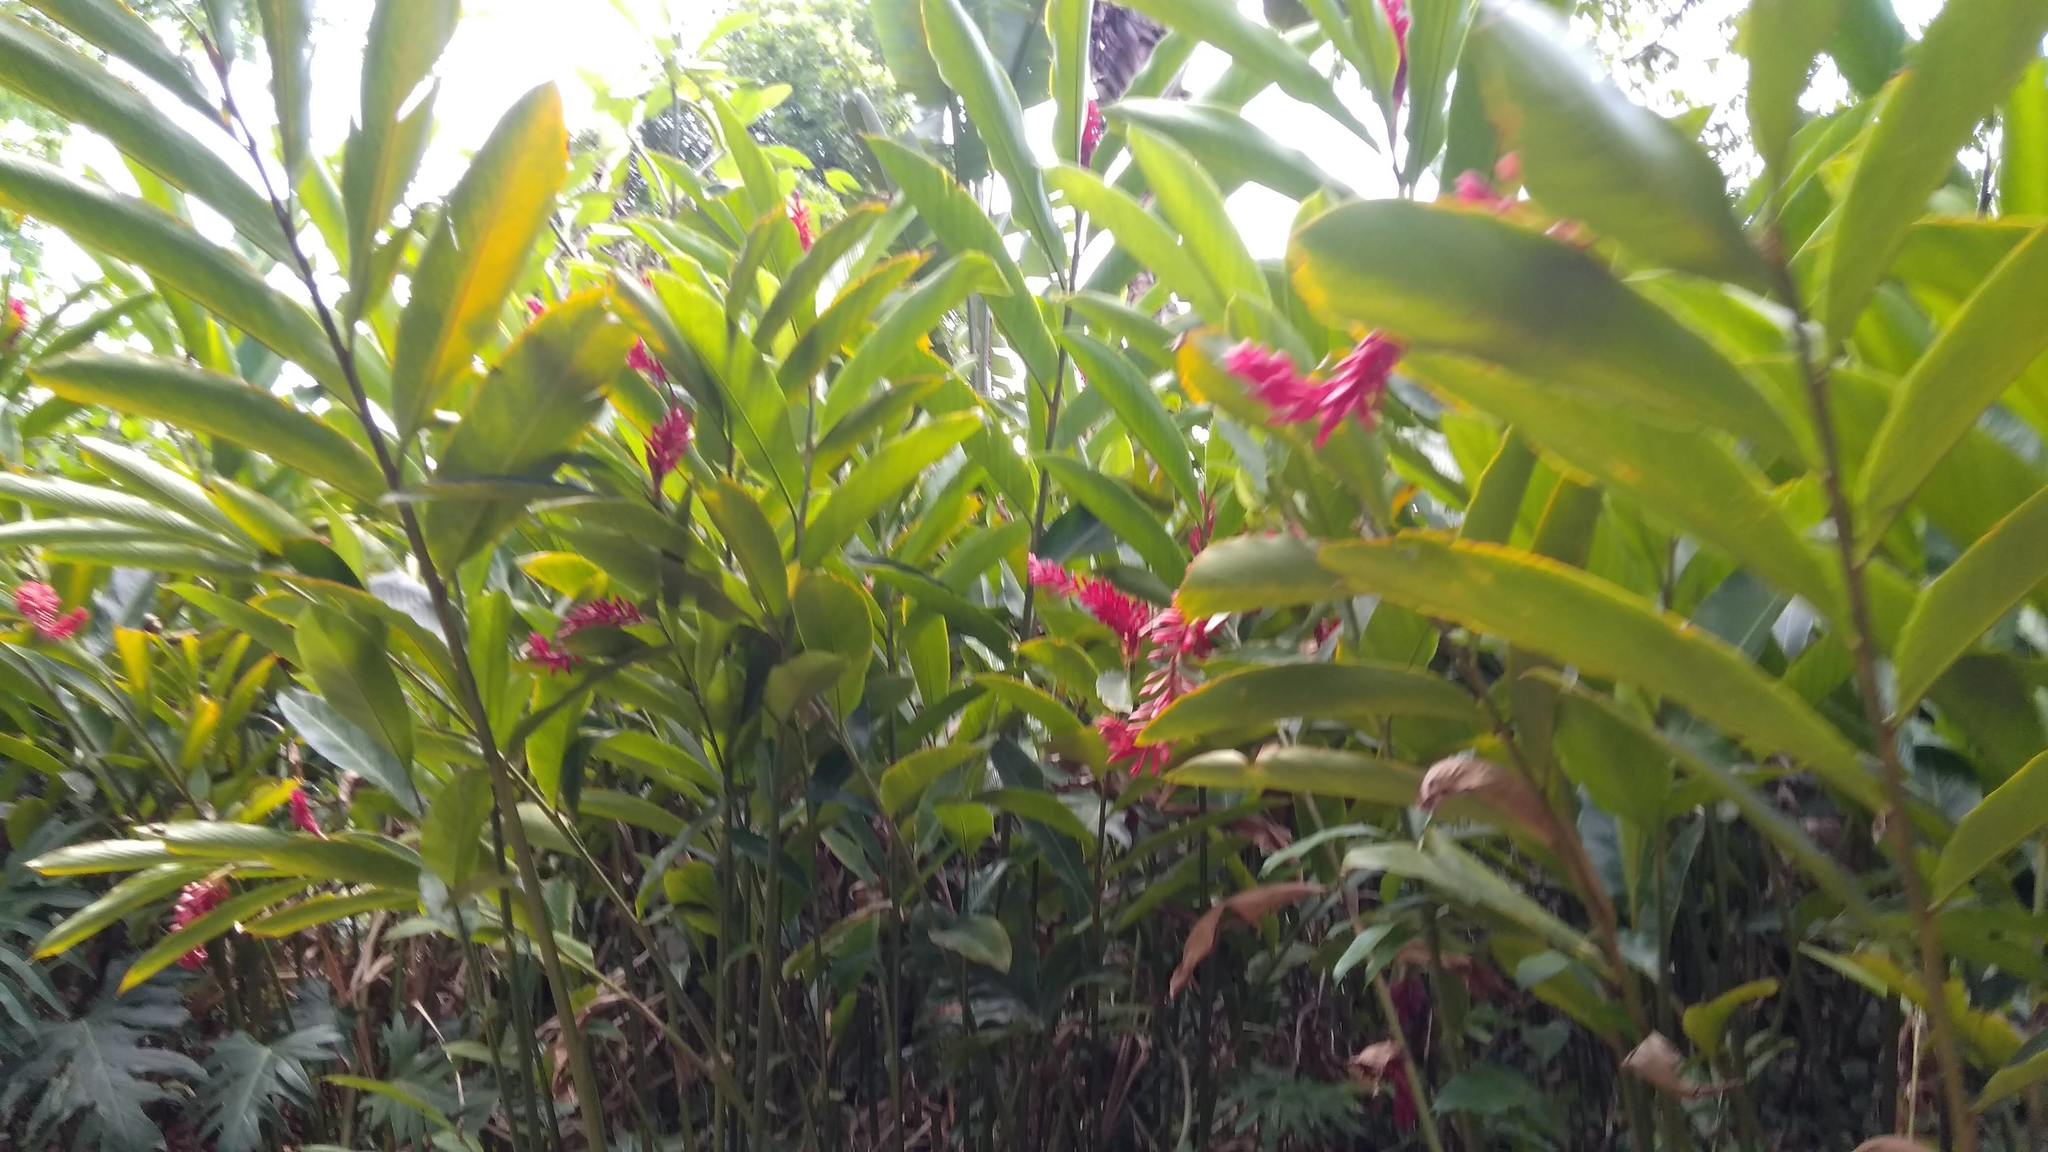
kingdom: Plantae
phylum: Tracheophyta
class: Liliopsida
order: Zingiberales
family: Zingiberaceae
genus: Alpinia
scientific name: Alpinia purpurata
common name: Red ginger
